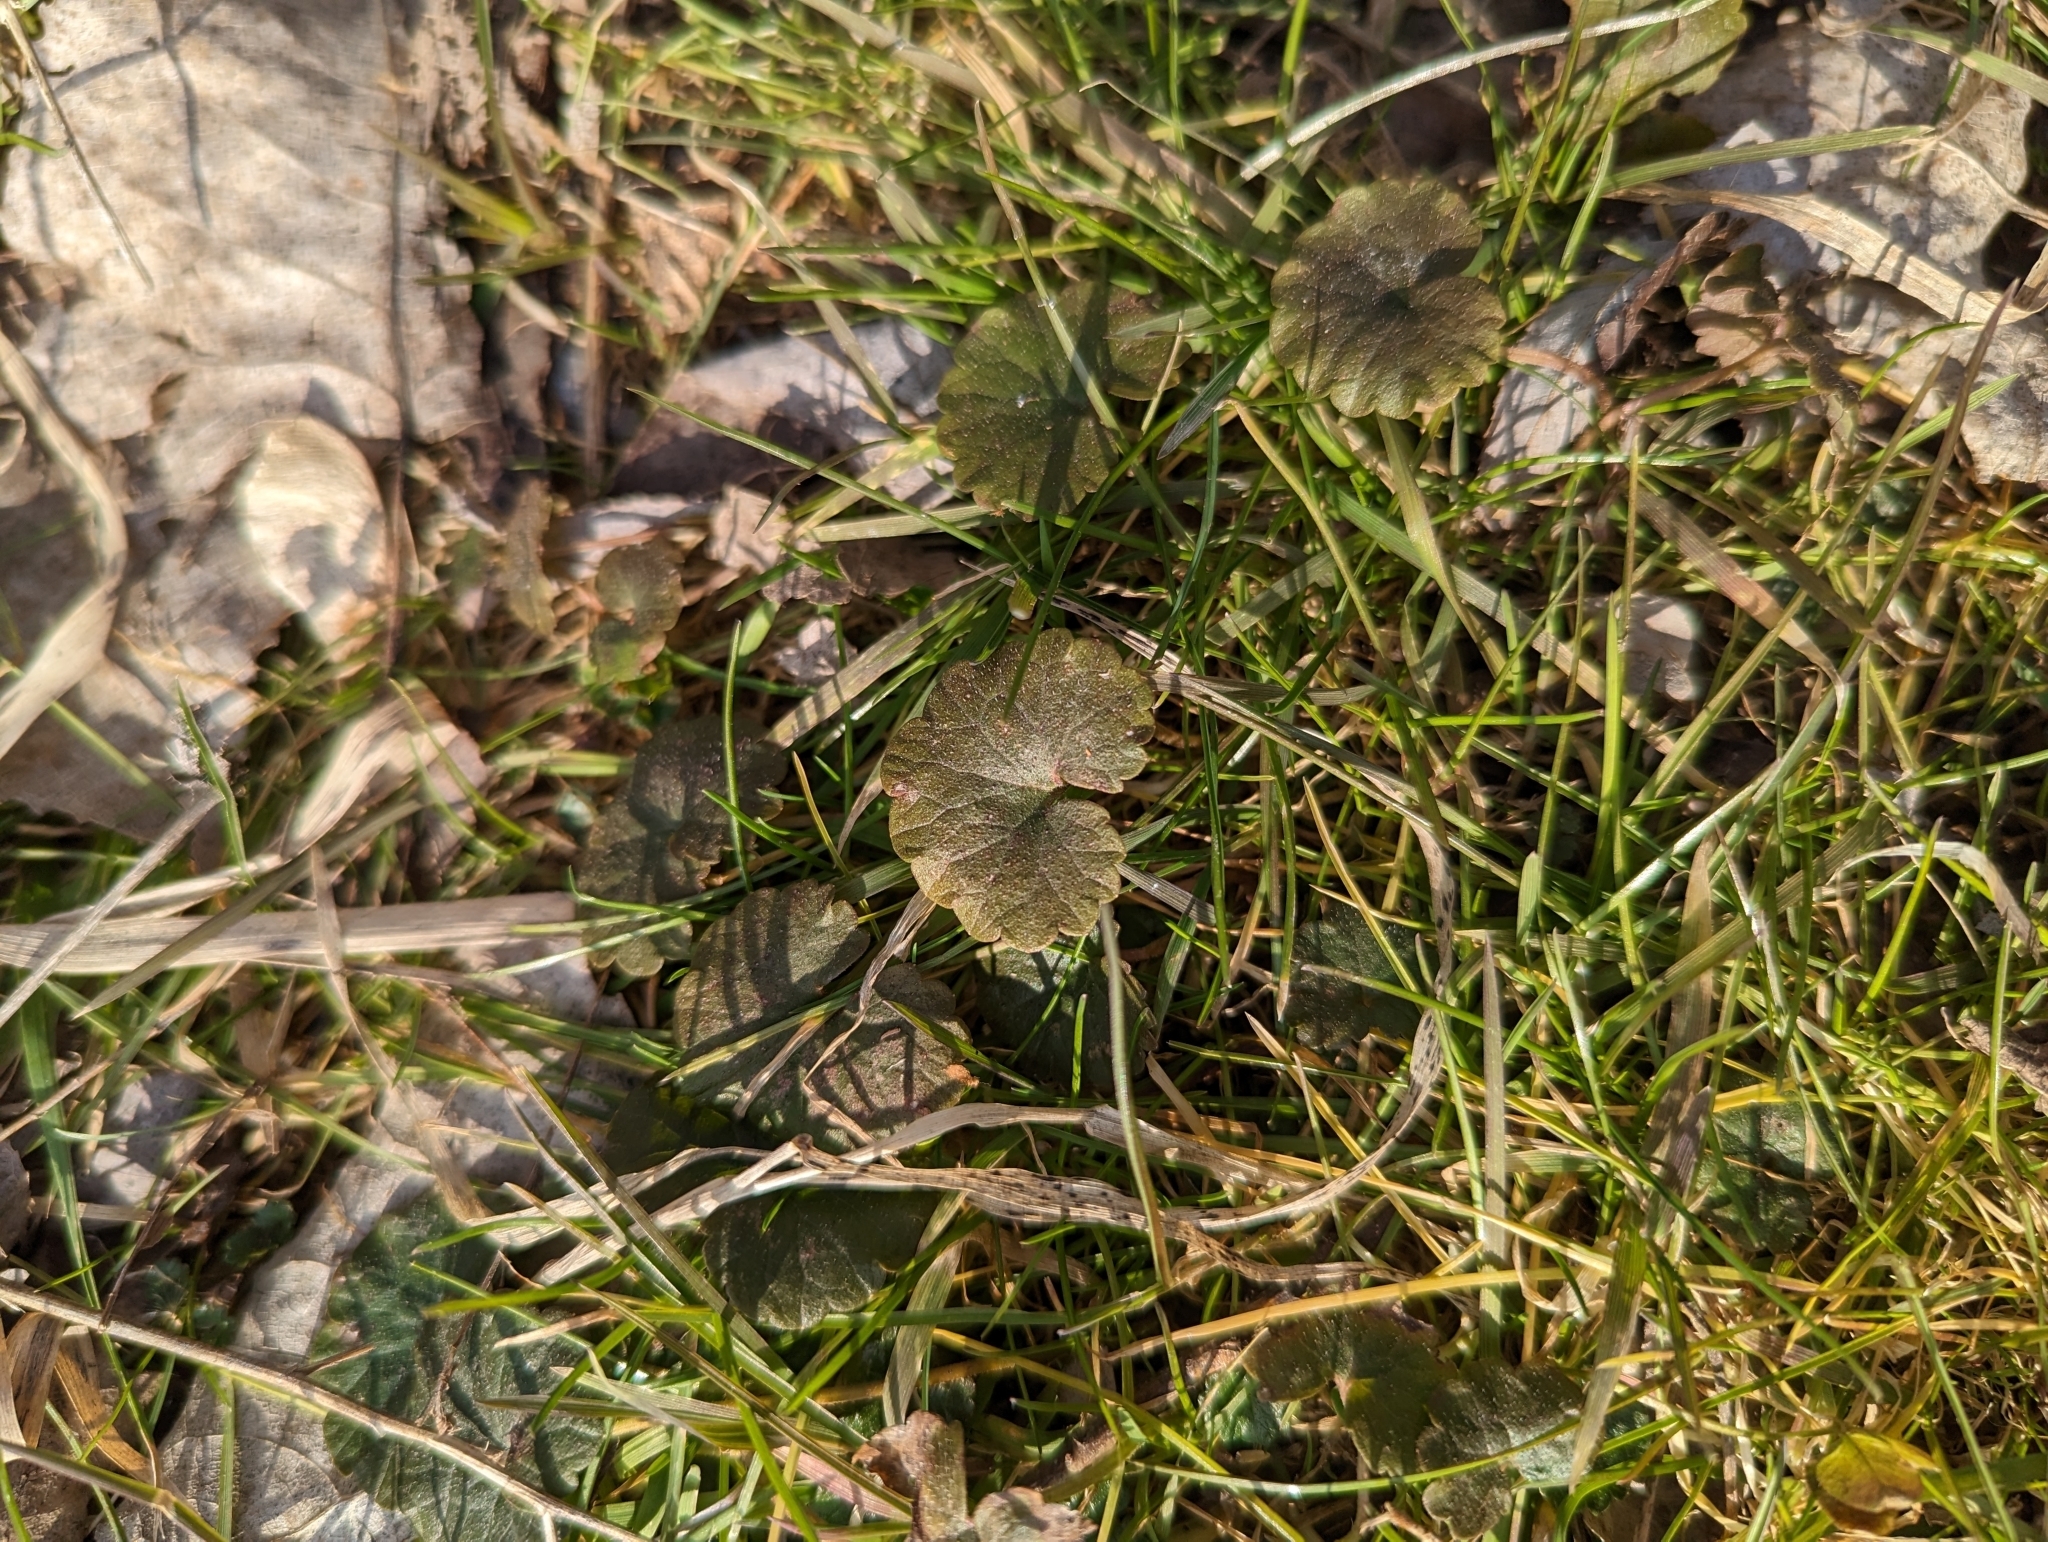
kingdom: Plantae
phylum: Tracheophyta
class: Magnoliopsida
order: Lamiales
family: Lamiaceae
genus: Glechoma
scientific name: Glechoma hederacea
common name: Ground ivy
